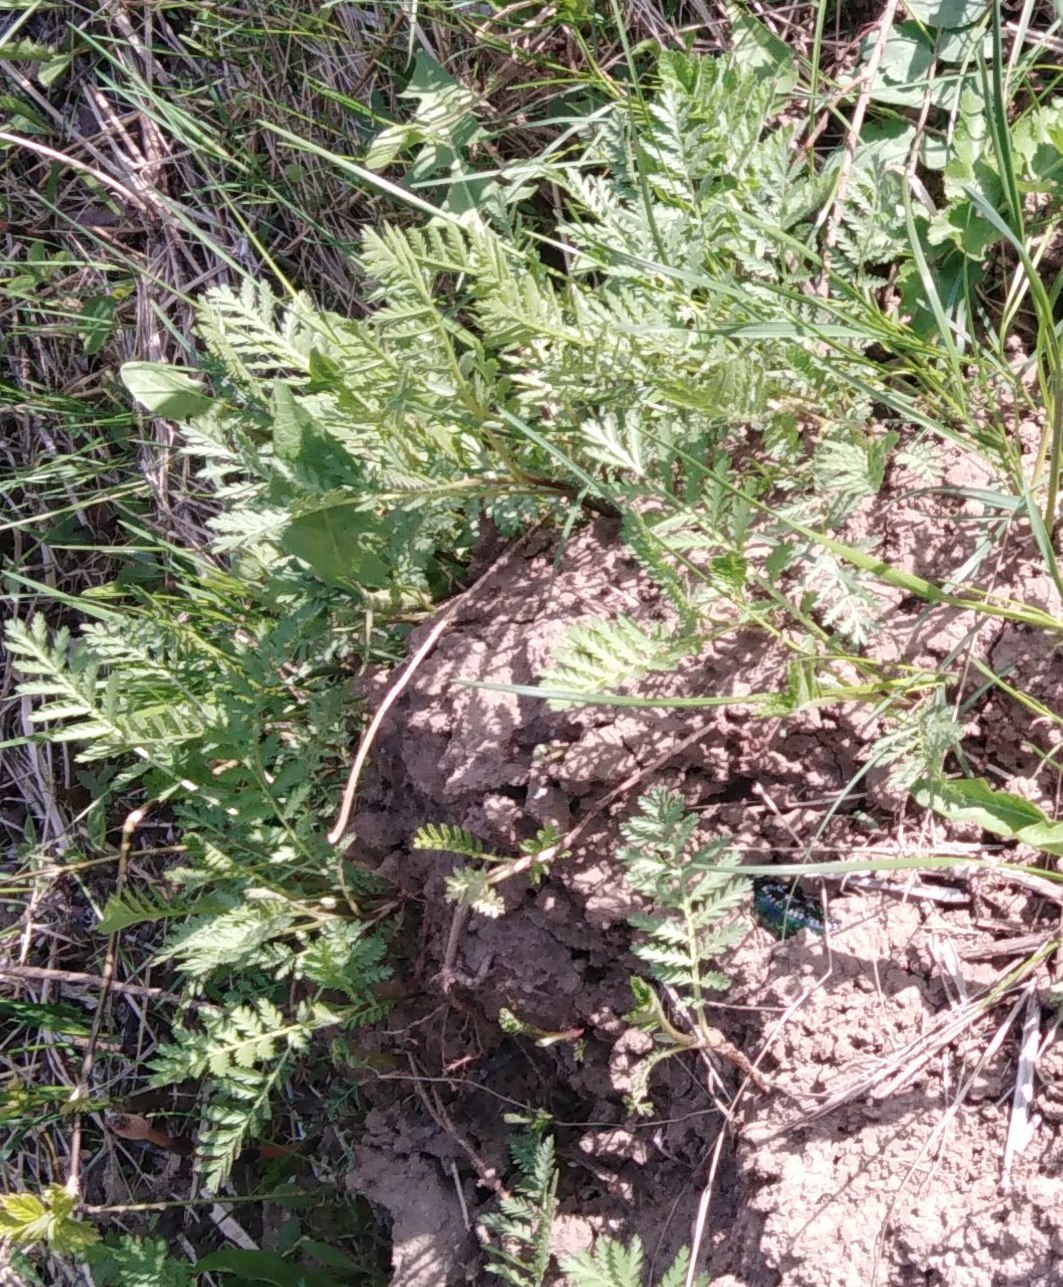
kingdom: Plantae
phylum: Tracheophyta
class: Magnoliopsida
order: Asterales
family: Asteraceae
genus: Tanacetum
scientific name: Tanacetum vulgare
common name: Common tansy
